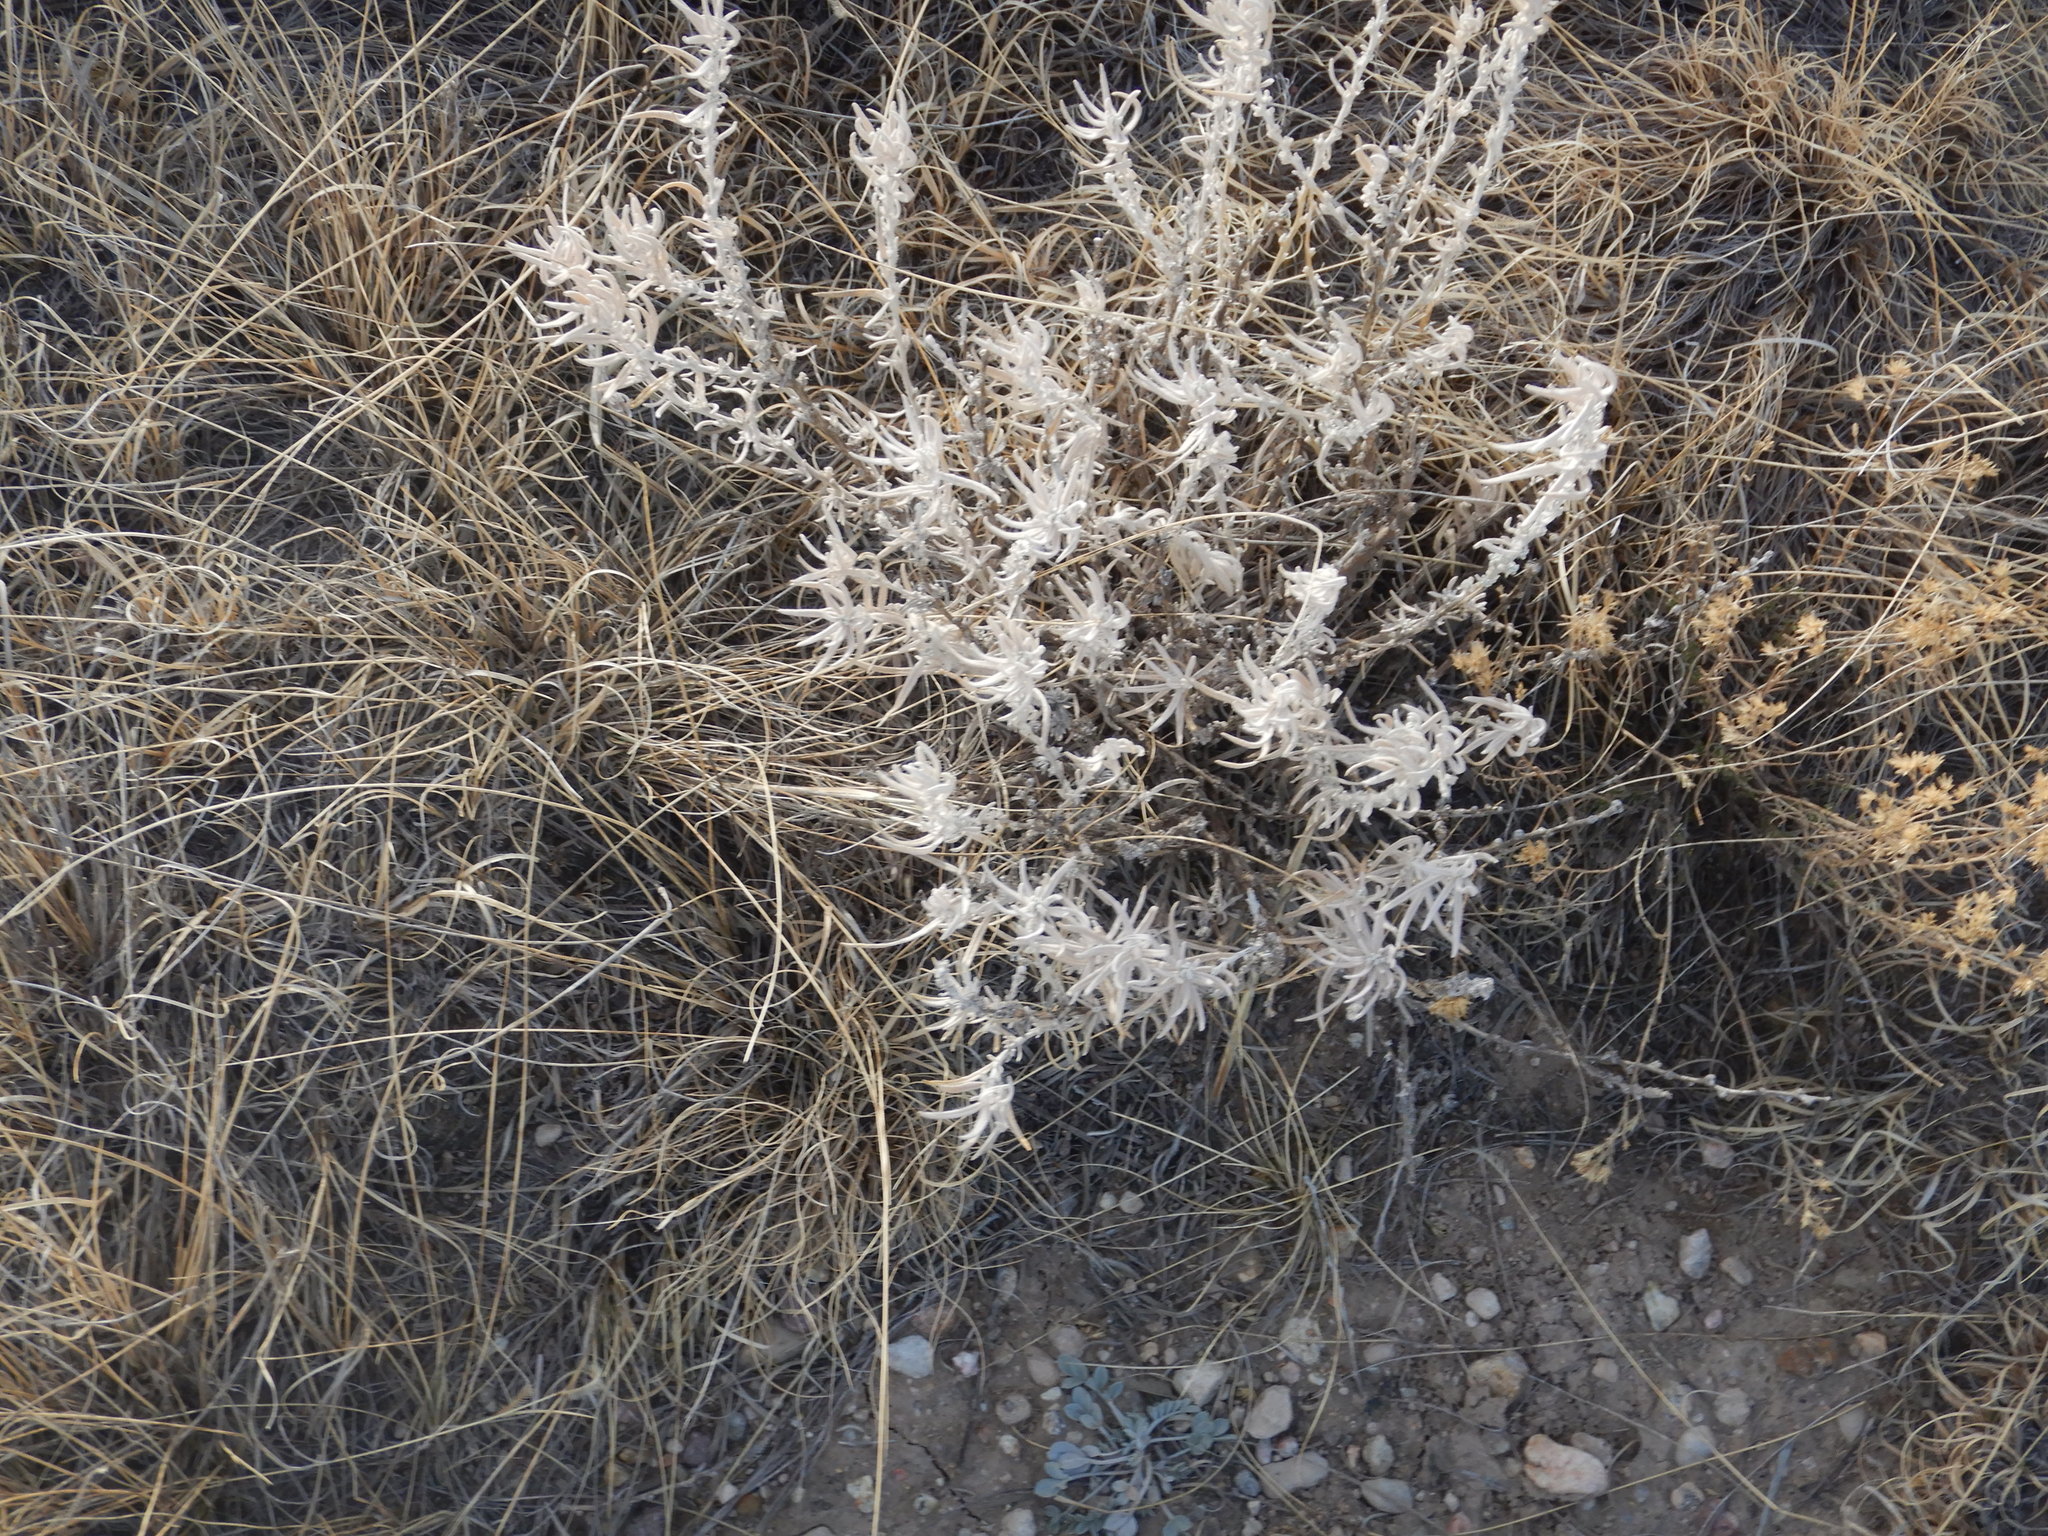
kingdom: Plantae
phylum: Tracheophyta
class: Magnoliopsida
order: Caryophyllales
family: Amaranthaceae
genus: Krascheninnikovia
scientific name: Krascheninnikovia lanata
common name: Winterfat
